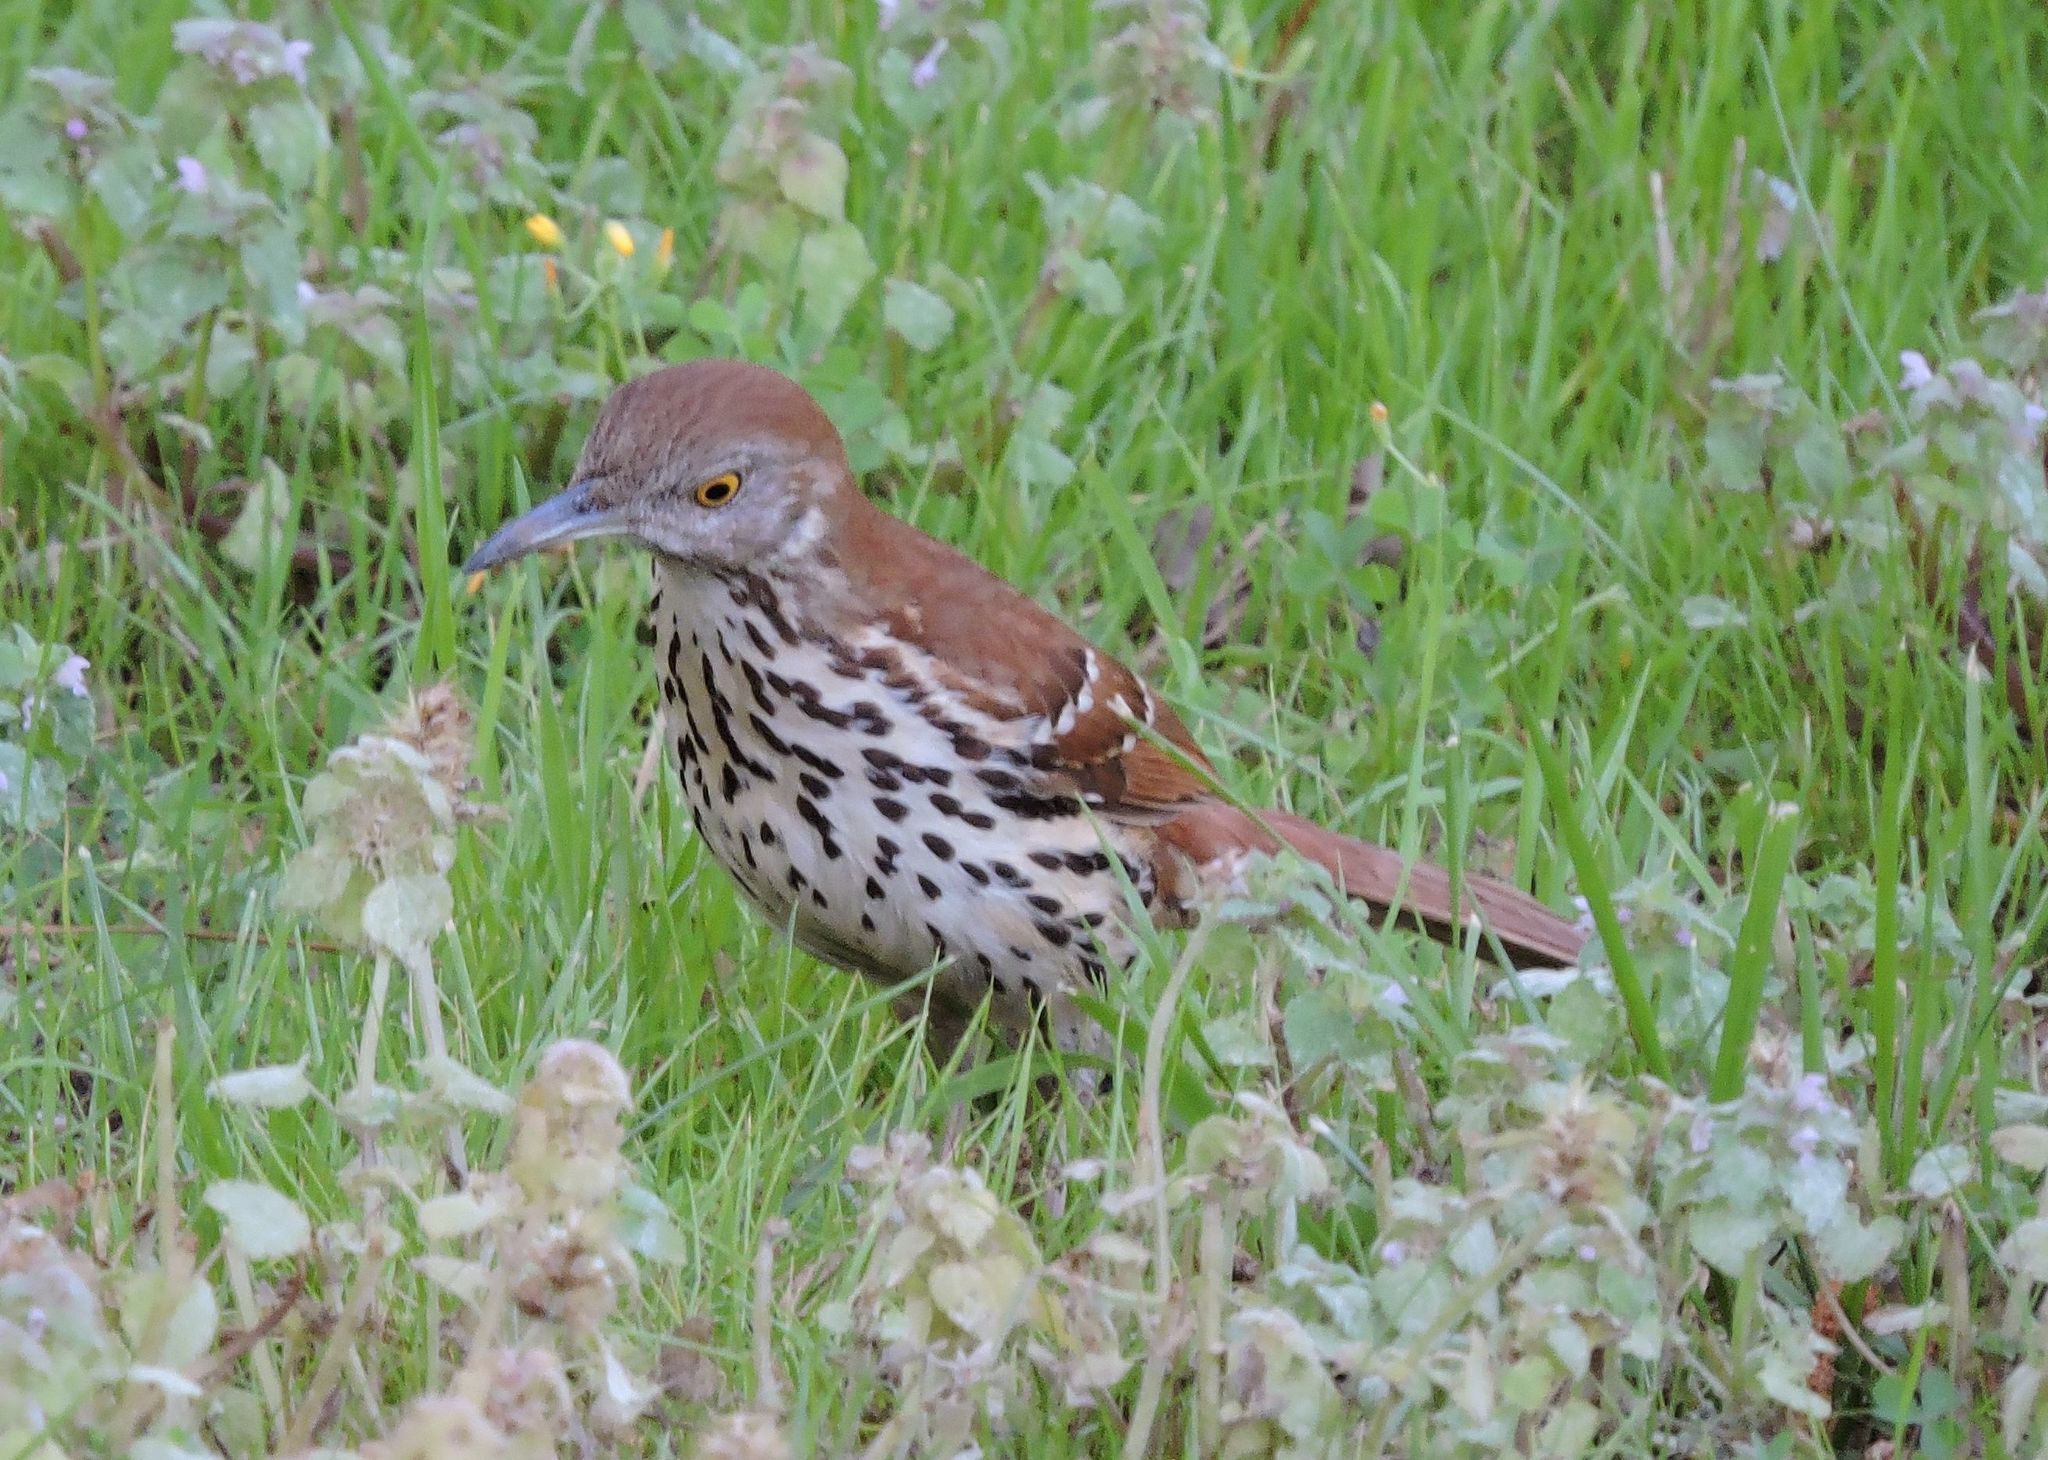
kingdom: Animalia
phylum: Chordata
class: Aves
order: Passeriformes
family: Mimidae
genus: Toxostoma
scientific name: Toxostoma rufum
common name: Brown thrasher
